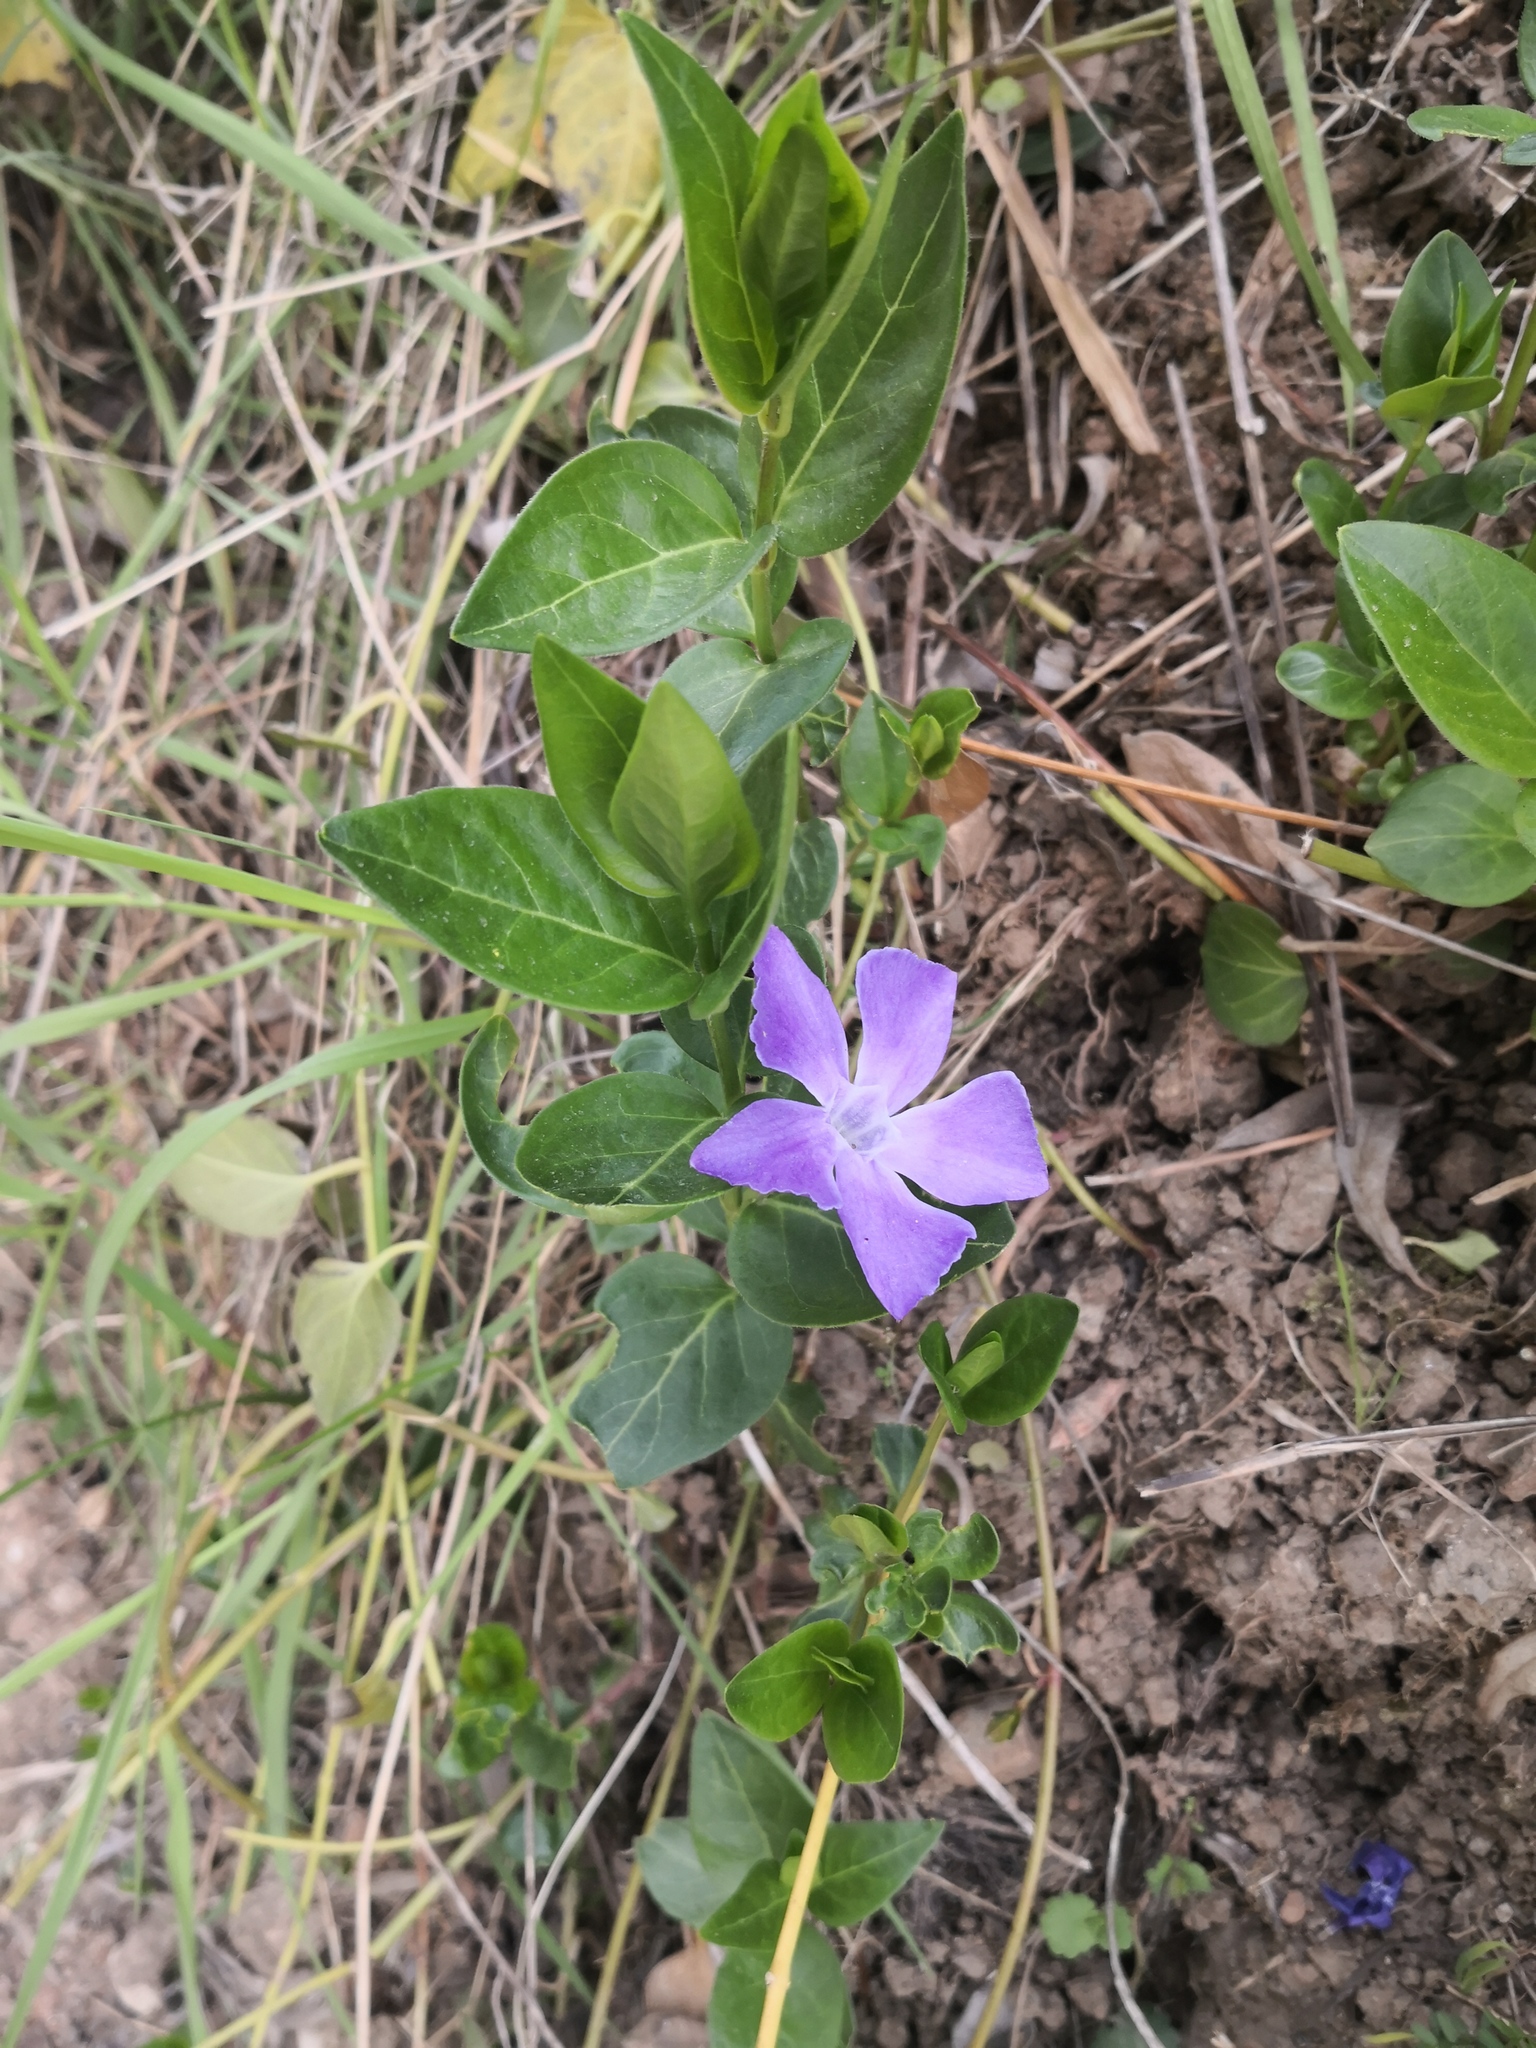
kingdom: Plantae
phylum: Tracheophyta
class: Magnoliopsida
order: Gentianales
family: Apocynaceae
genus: Vinca
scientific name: Vinca major
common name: Greater periwinkle
